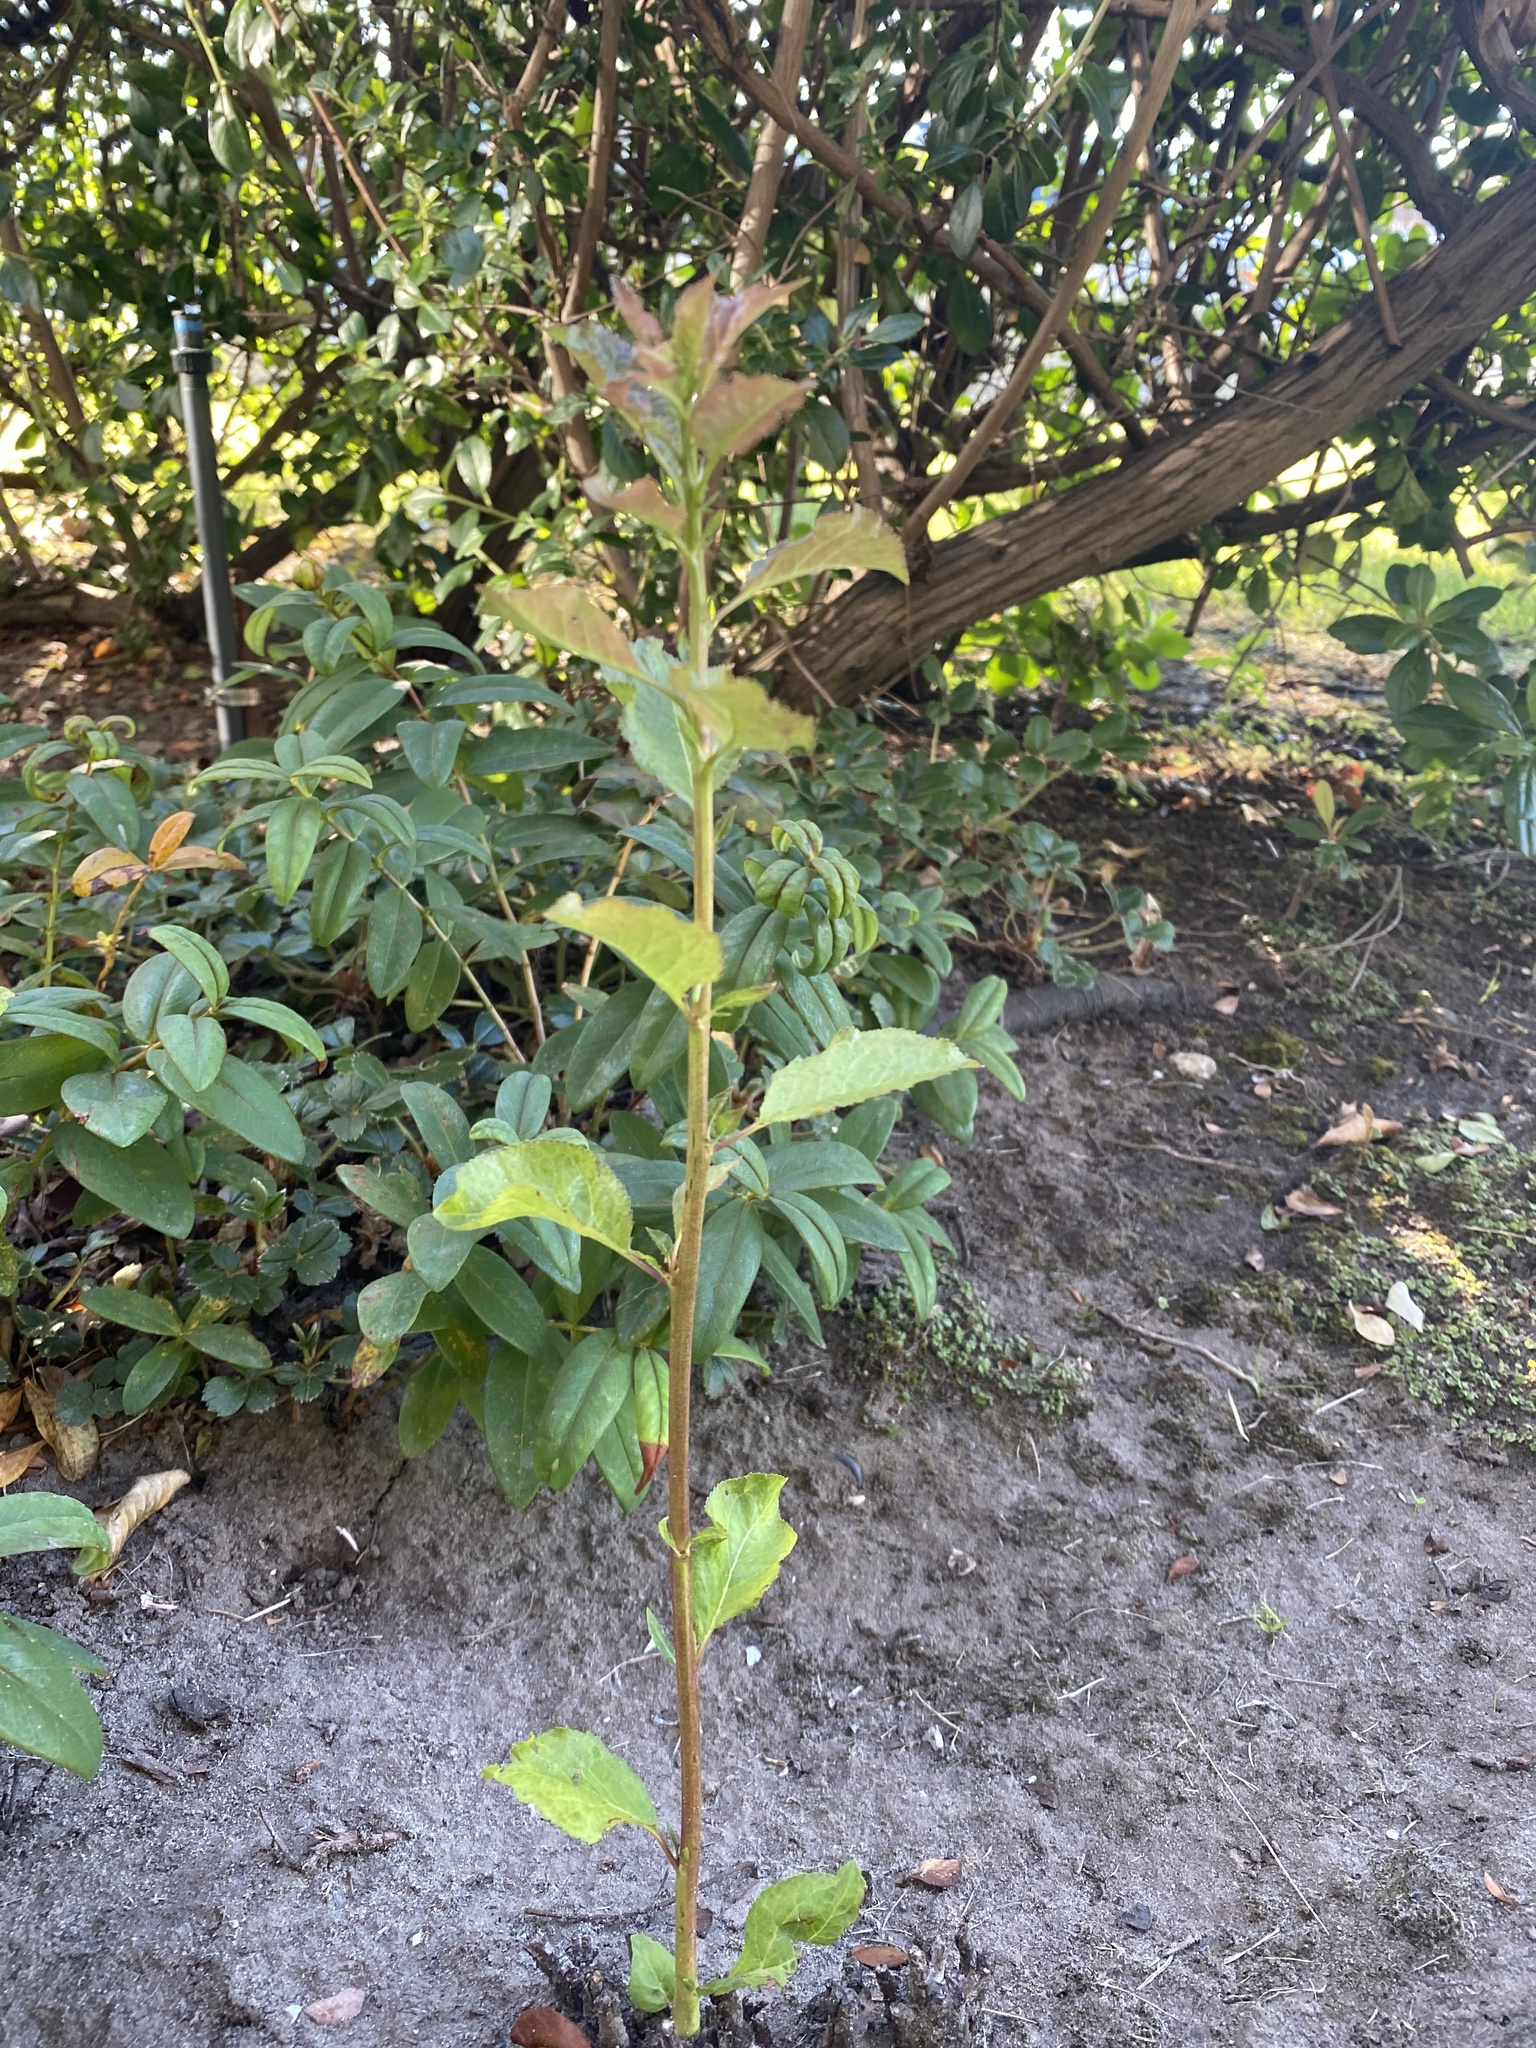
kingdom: Plantae
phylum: Tracheophyta
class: Magnoliopsida
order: Rosales
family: Rosaceae
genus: Prunus
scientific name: Prunus domestica
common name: Wild plum
